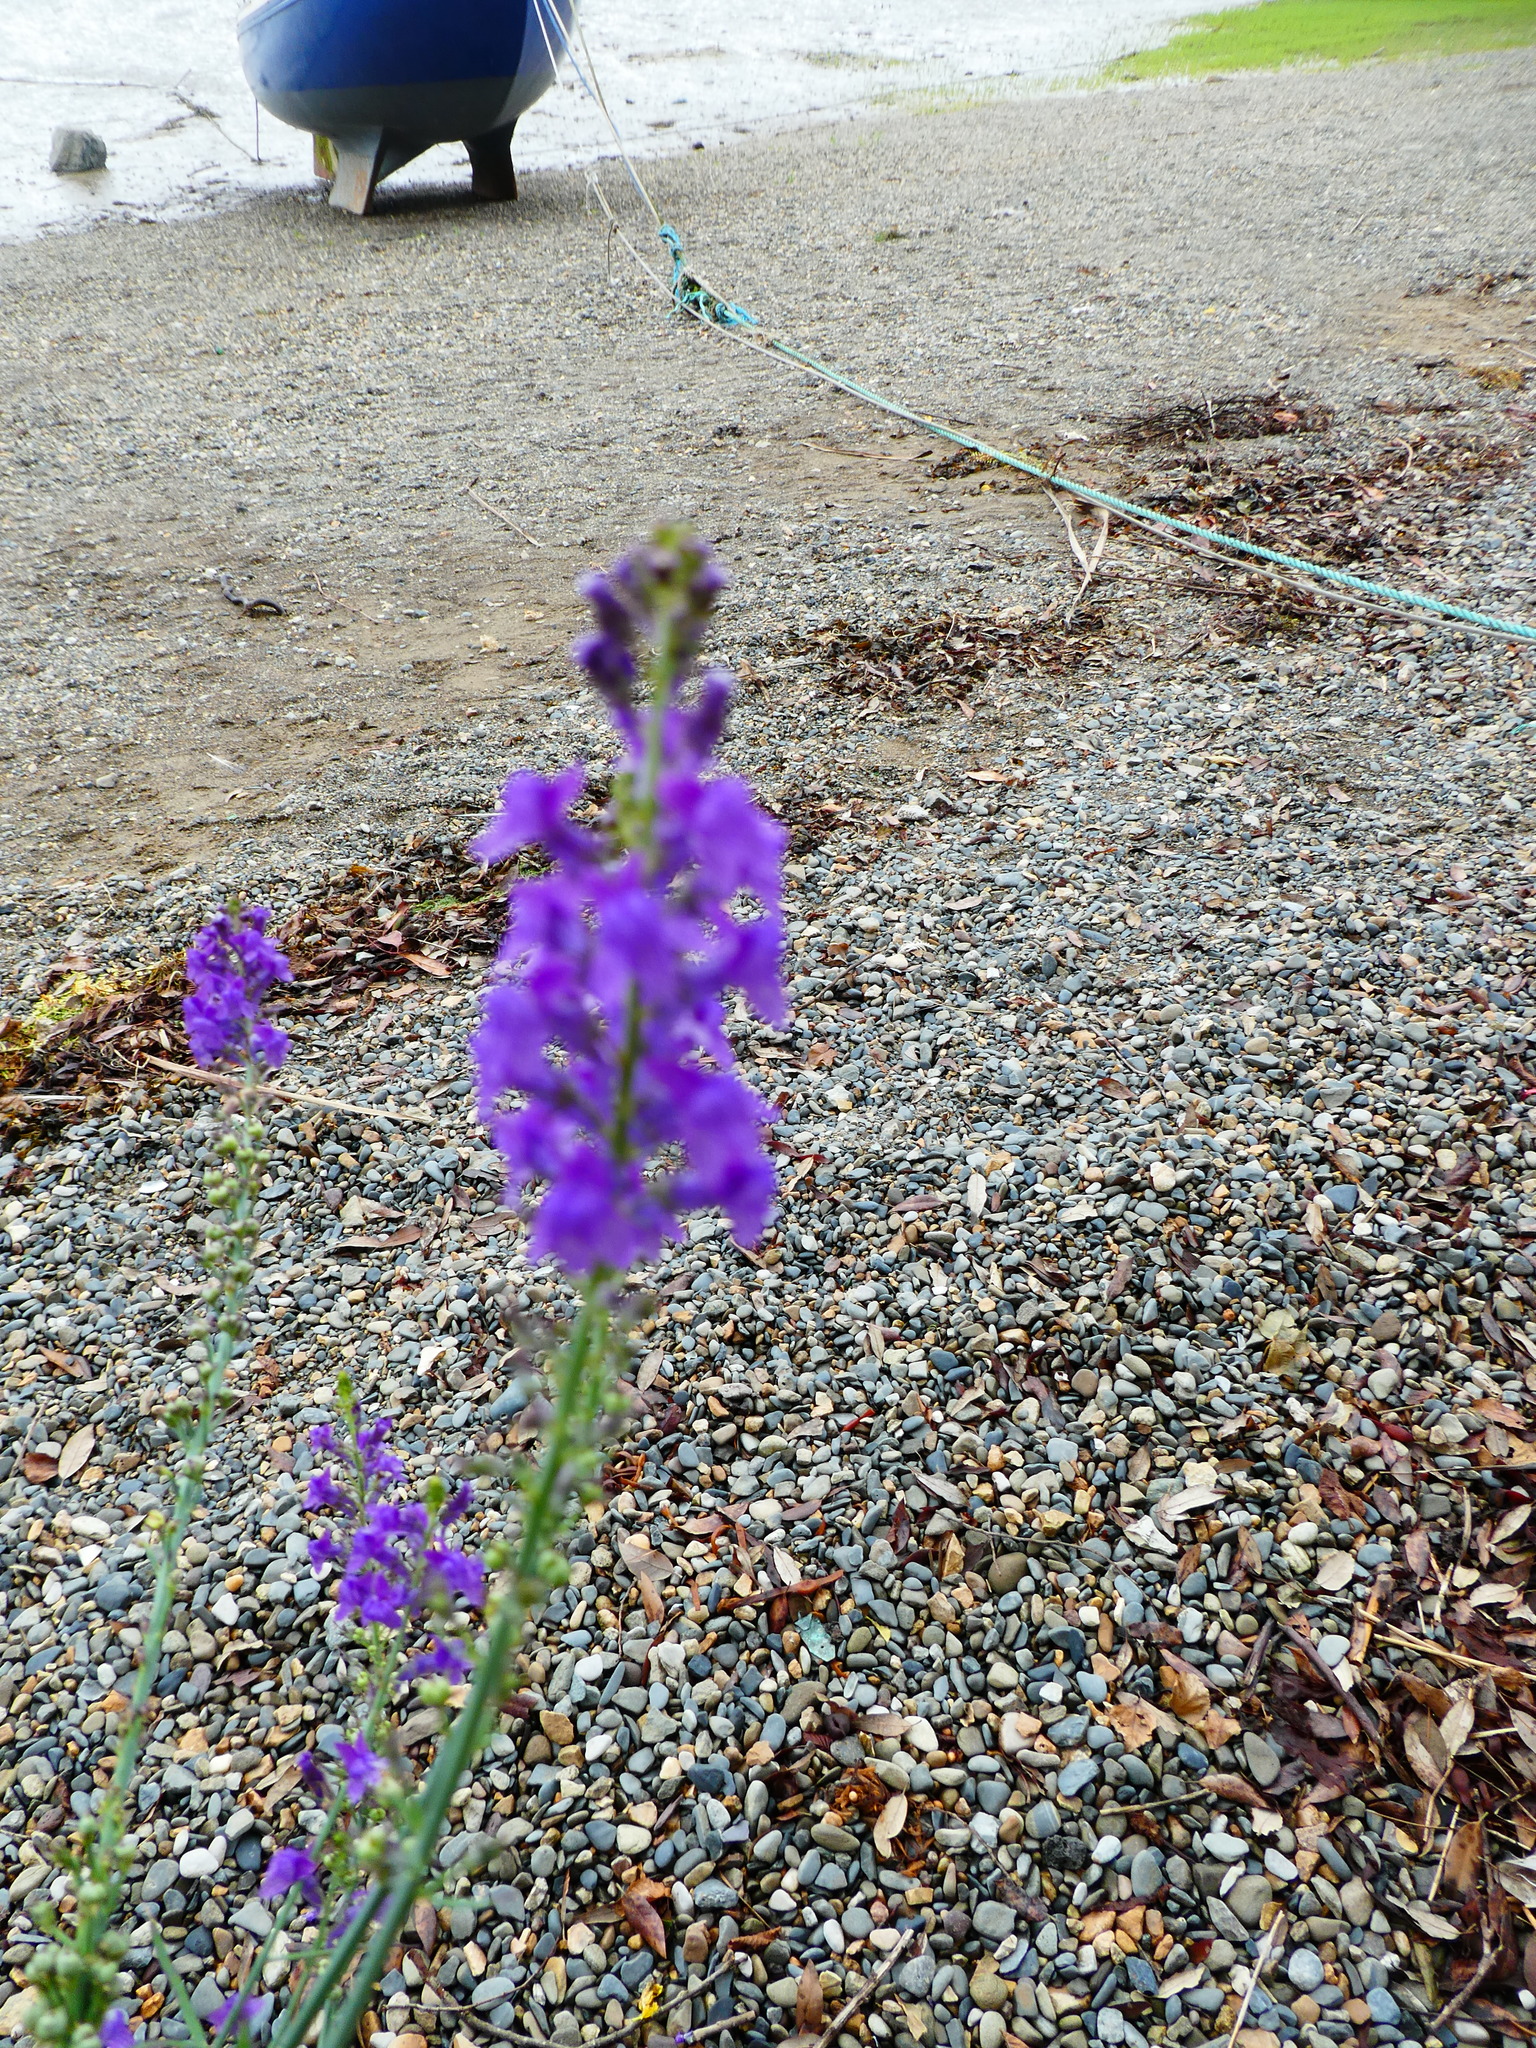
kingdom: Plantae
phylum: Tracheophyta
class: Magnoliopsida
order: Lamiales
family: Plantaginaceae
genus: Linaria
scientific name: Linaria purpurea
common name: Purple toadflax
